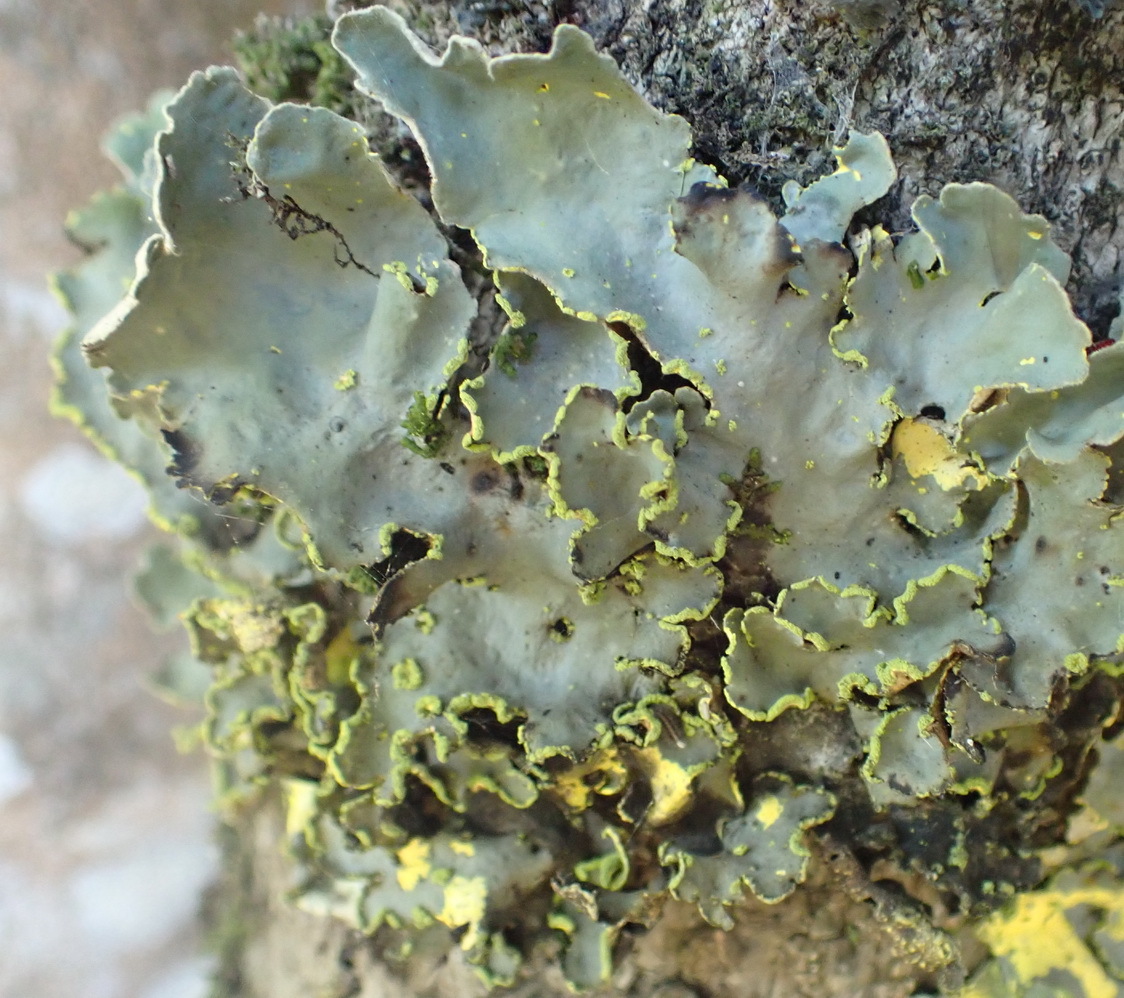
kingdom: Fungi
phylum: Ascomycota
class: Lecanoromycetes
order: Peltigerales
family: Lobariaceae
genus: Pseudocyphellaria
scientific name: Pseudocyphellaria aurata
